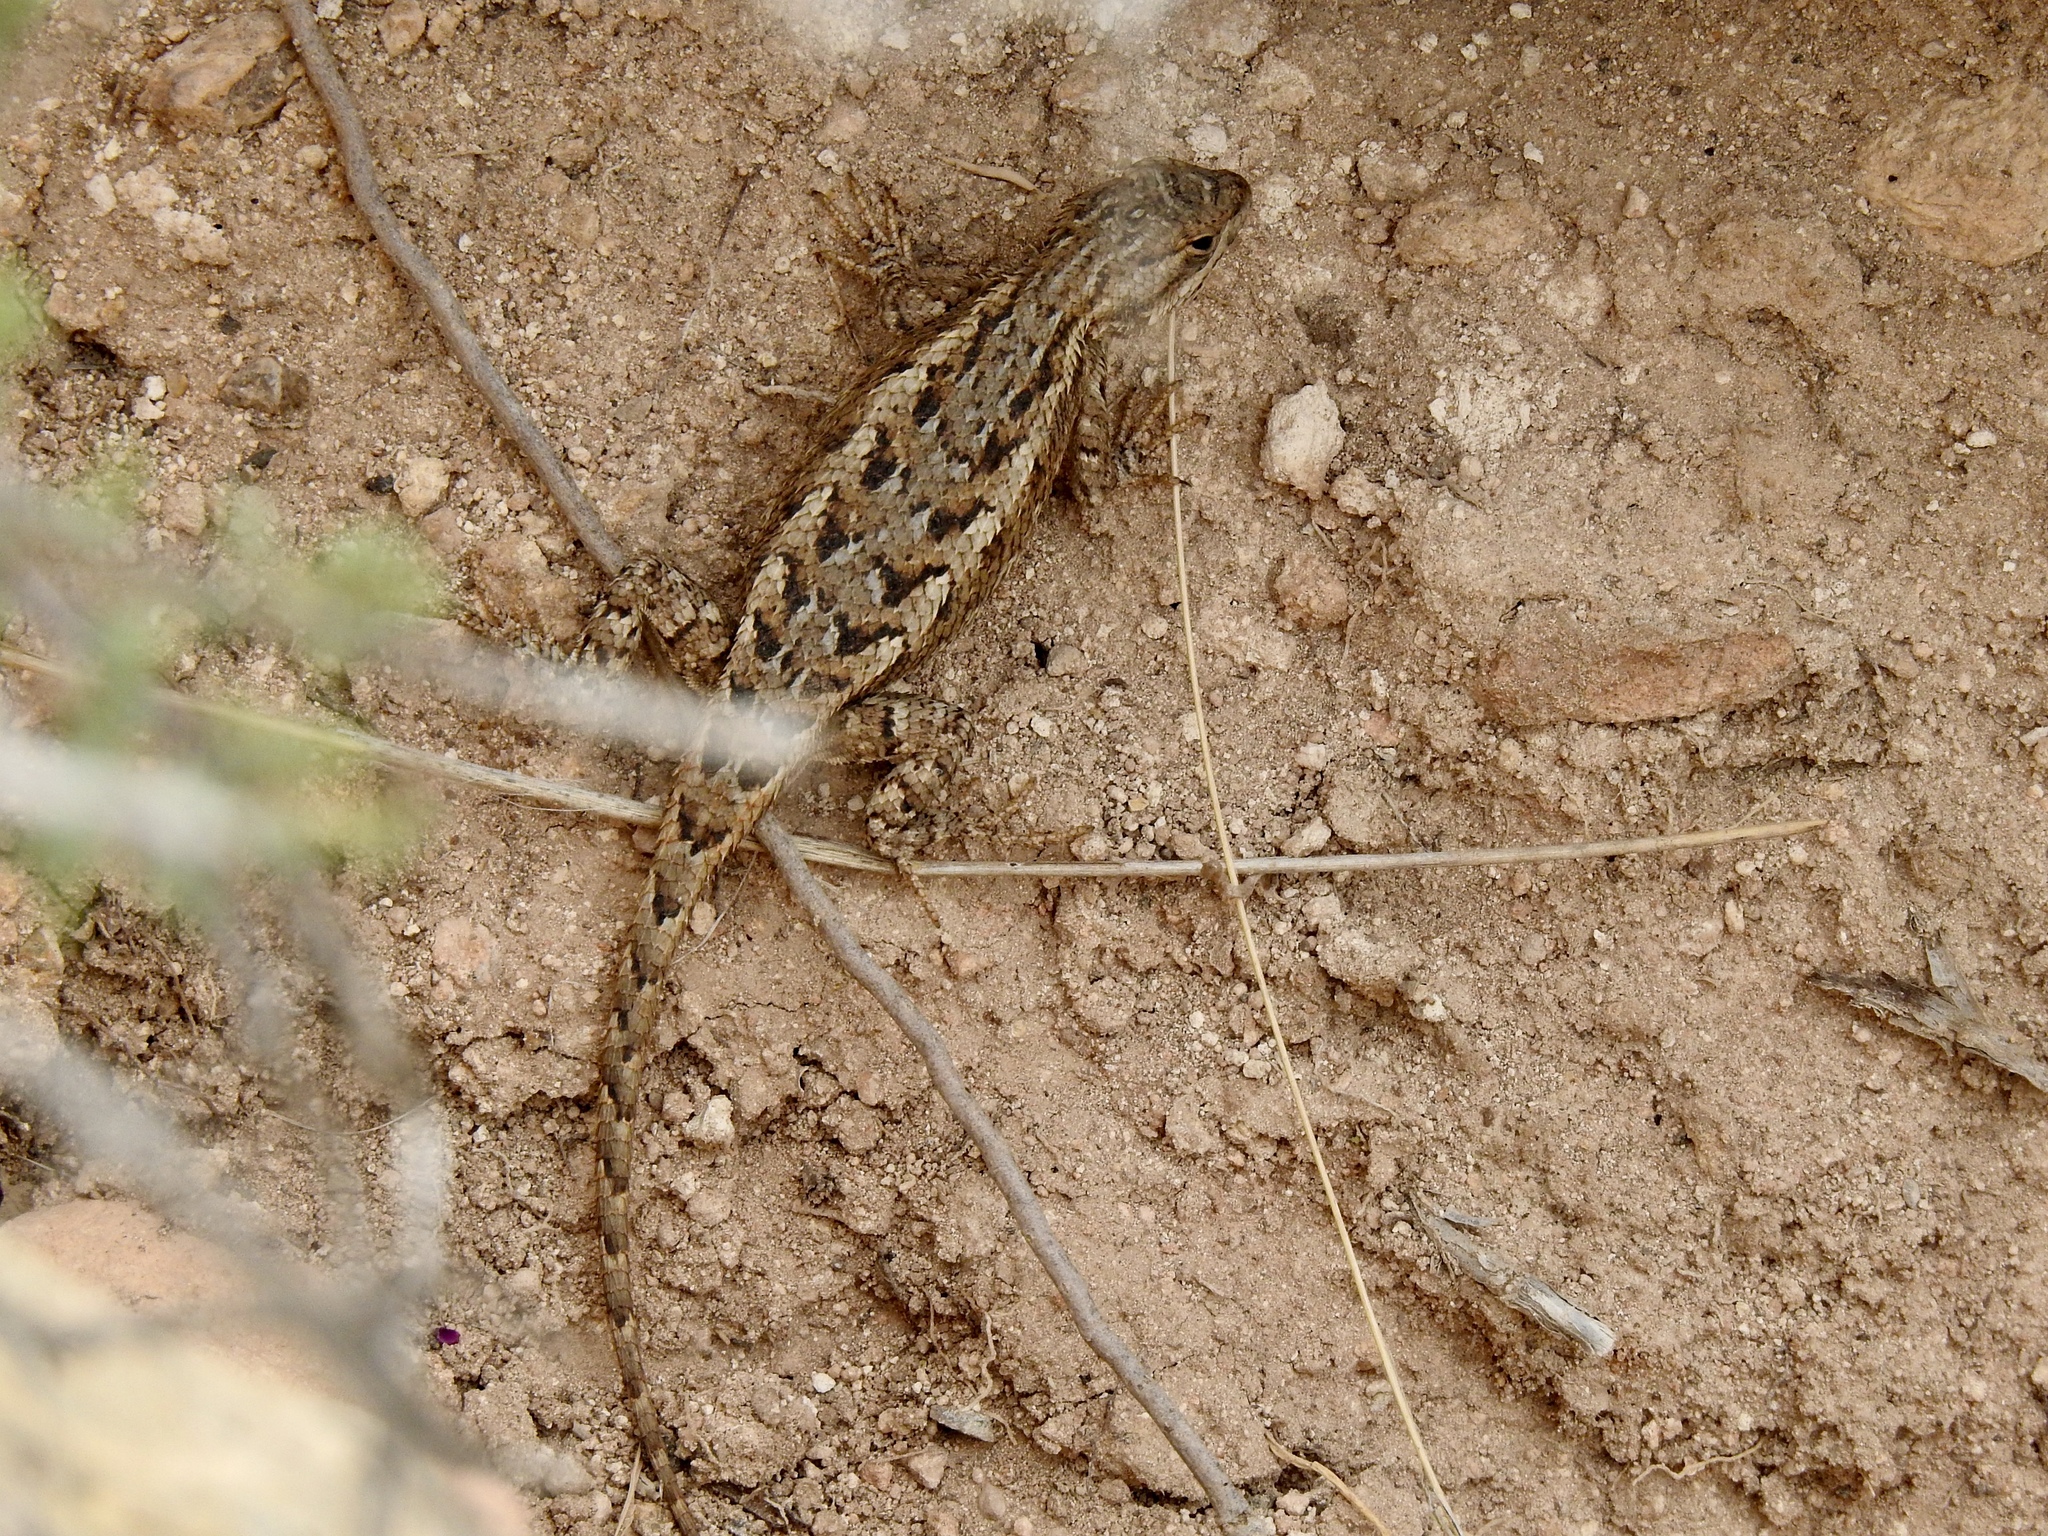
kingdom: Animalia
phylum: Chordata
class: Squamata
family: Phrynosomatidae
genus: Sceloporus
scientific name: Sceloporus cowlesi
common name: White sands prairie lizard
